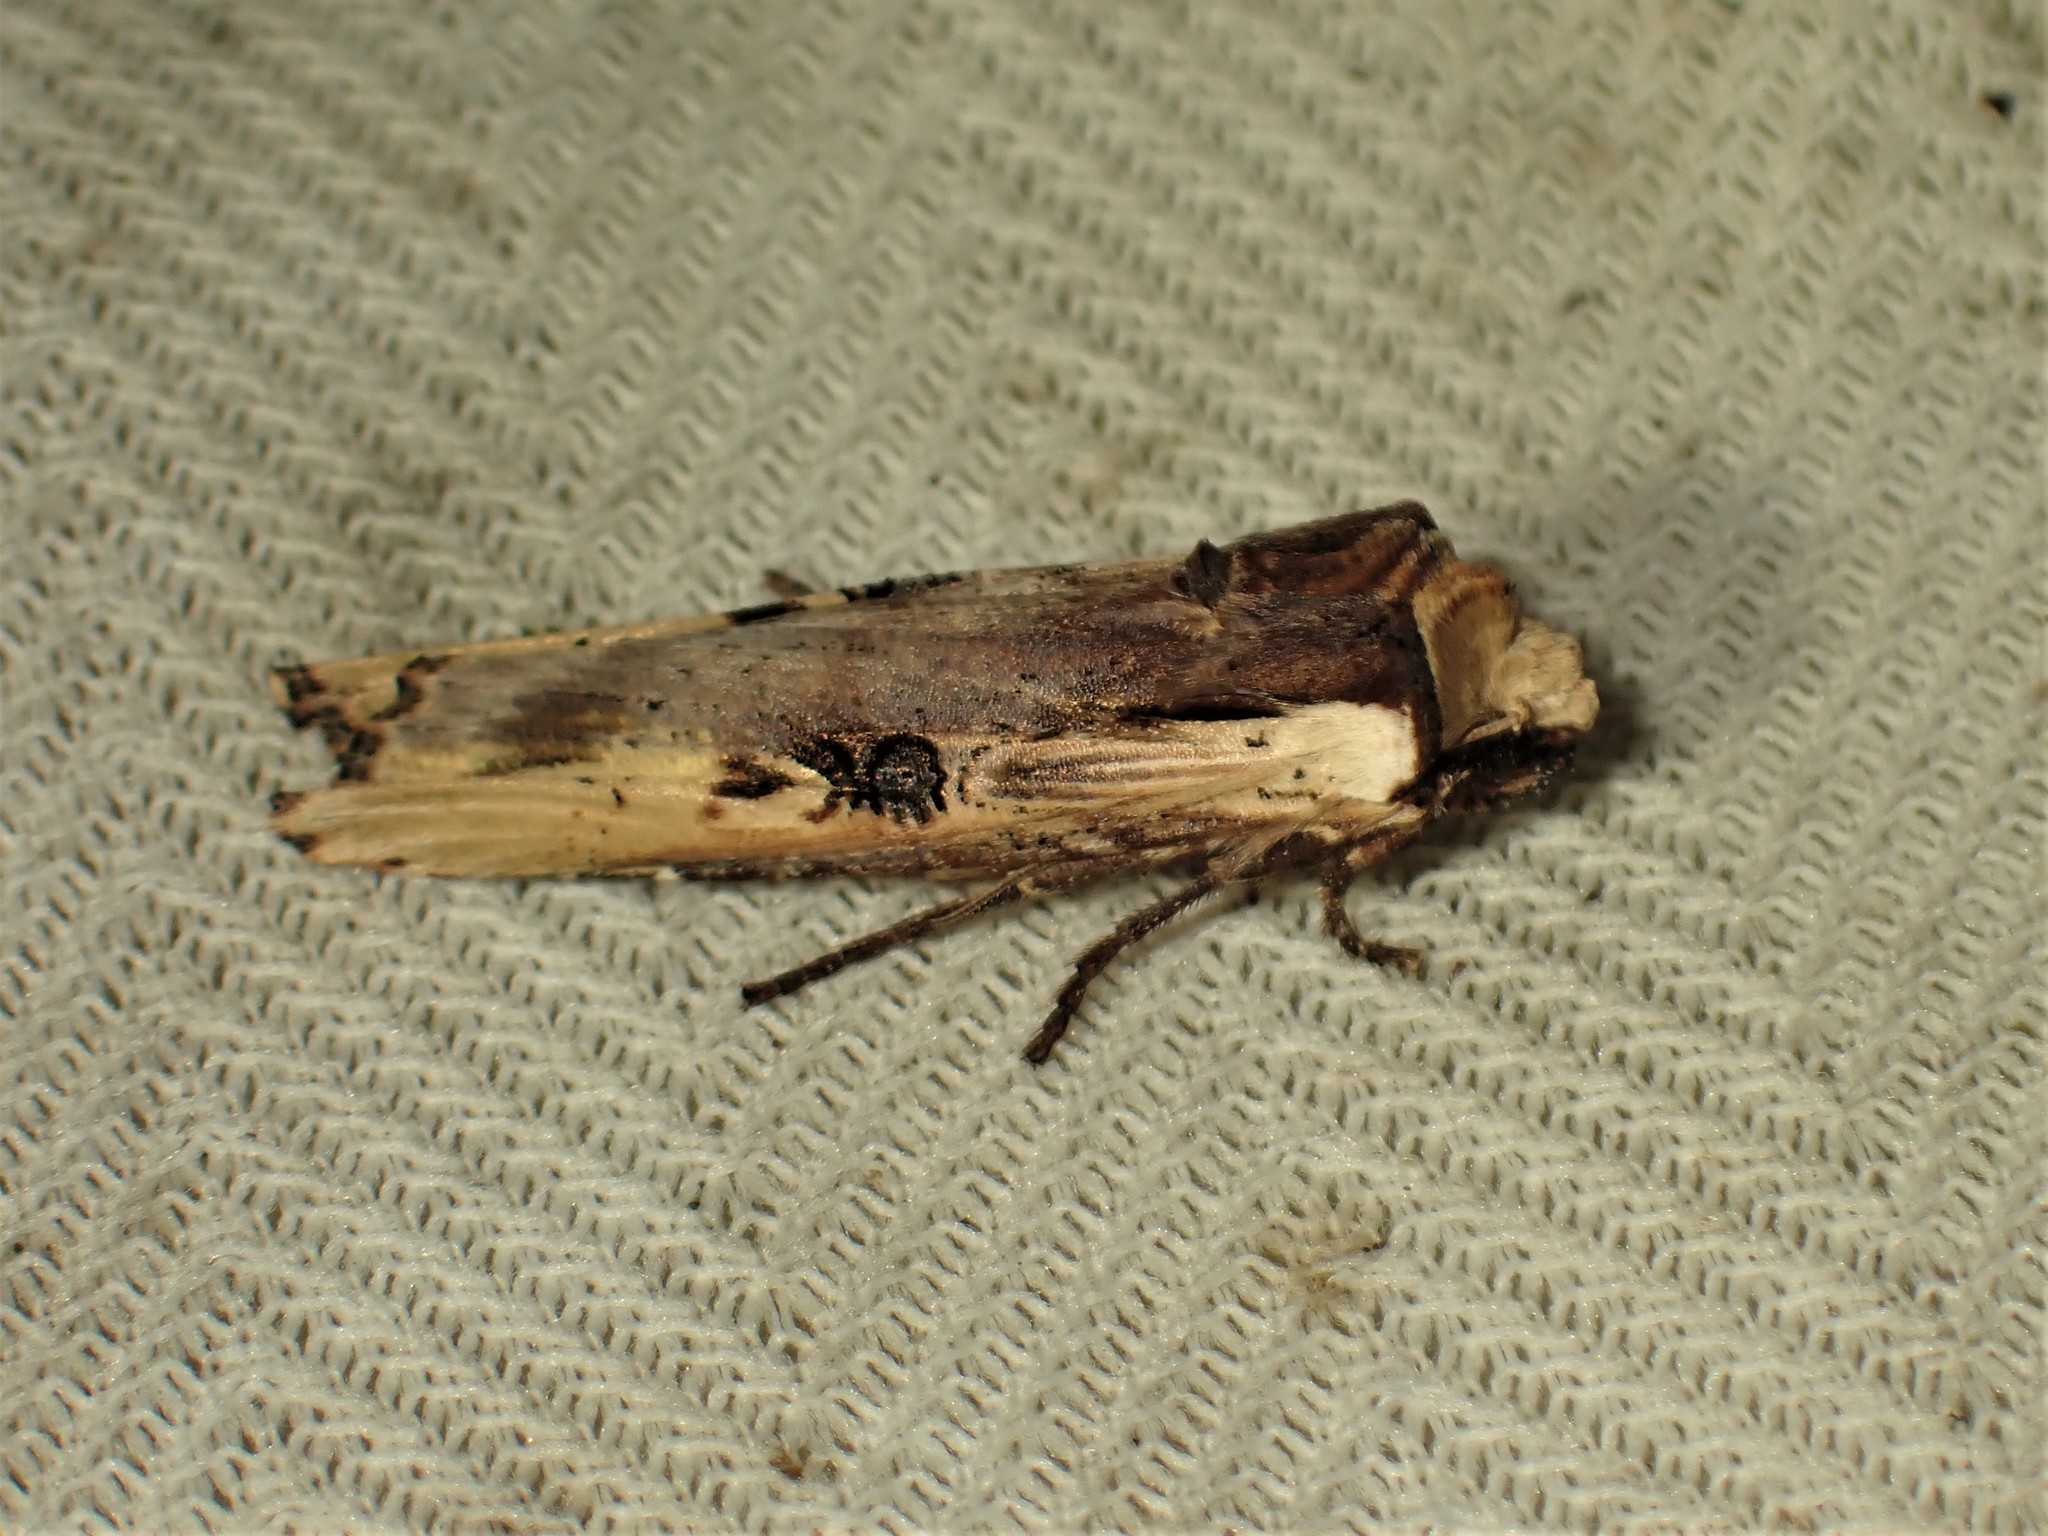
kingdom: Animalia
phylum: Arthropoda
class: Insecta
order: Lepidoptera
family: Noctuidae
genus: Xylena
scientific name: Xylena curvimacula
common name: Dot-and-dash swordgrass moth
